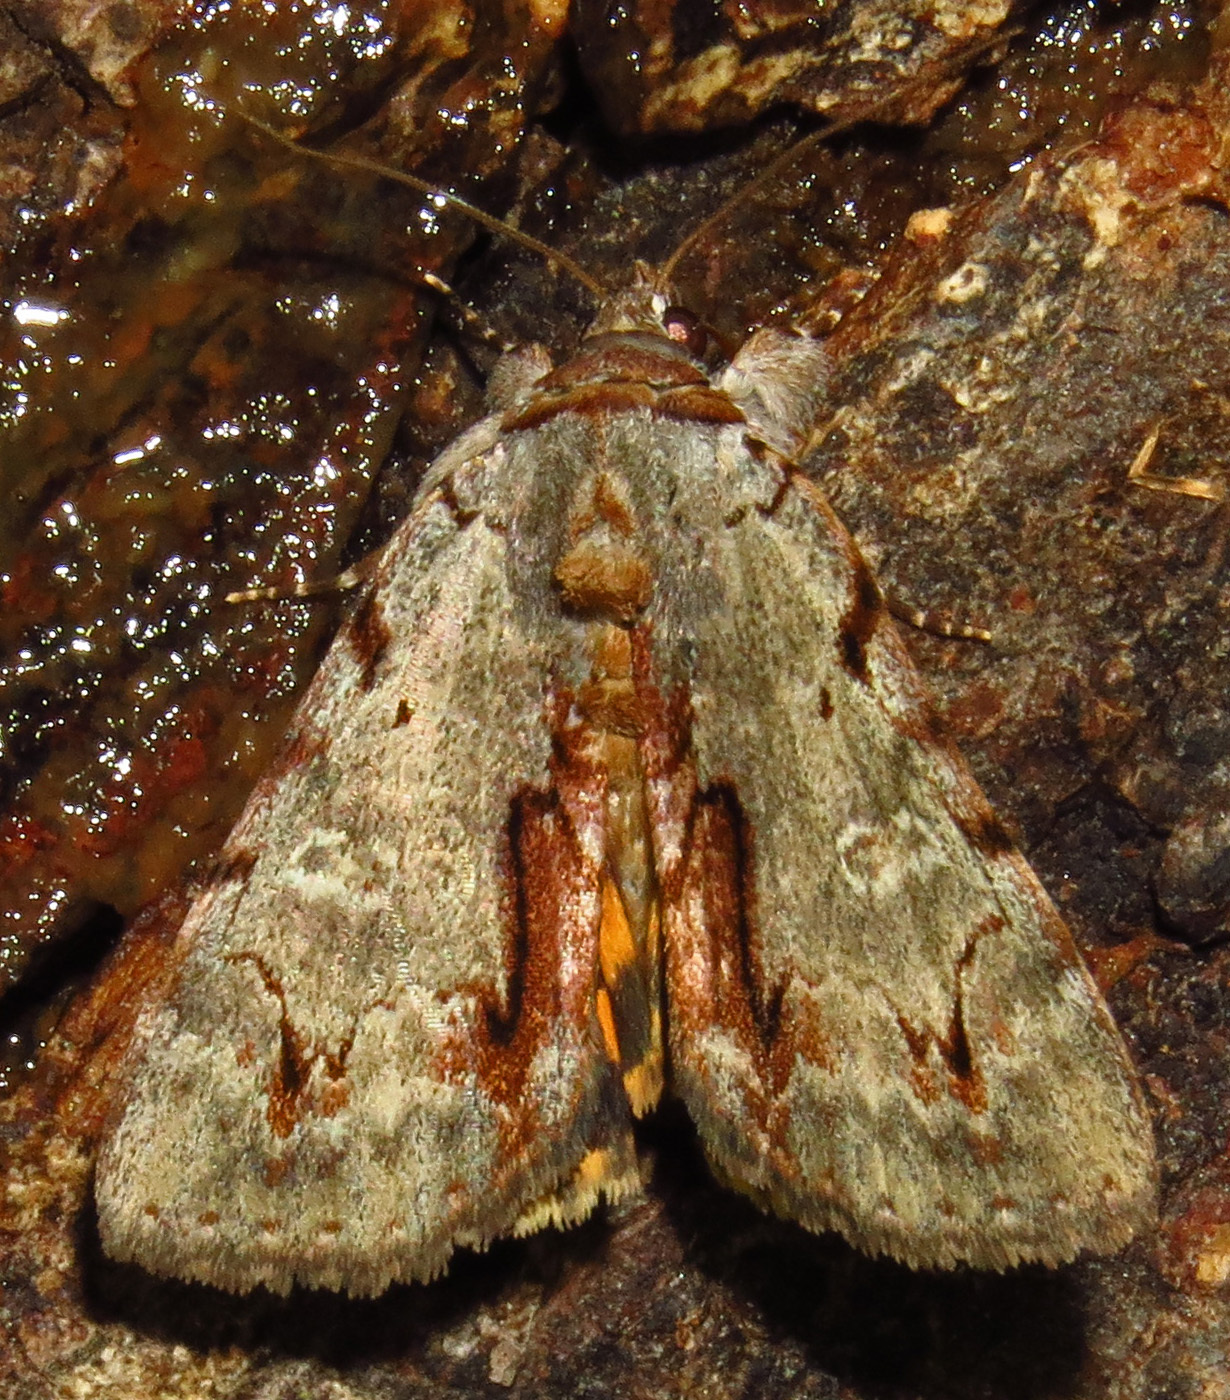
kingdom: Animalia
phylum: Arthropoda
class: Insecta
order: Lepidoptera
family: Erebidae
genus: Catocala
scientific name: Catocala grynea
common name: Woody underwing
